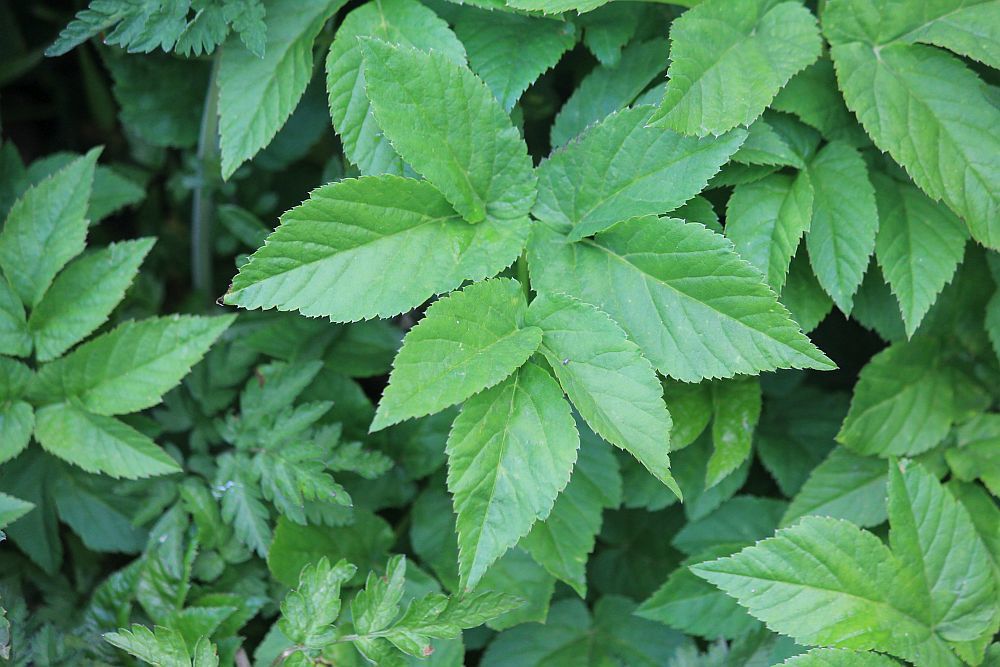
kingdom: Plantae
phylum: Tracheophyta
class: Magnoliopsida
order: Apiales
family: Apiaceae
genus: Aegopodium
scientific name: Aegopodium podagraria
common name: Ground-elder
